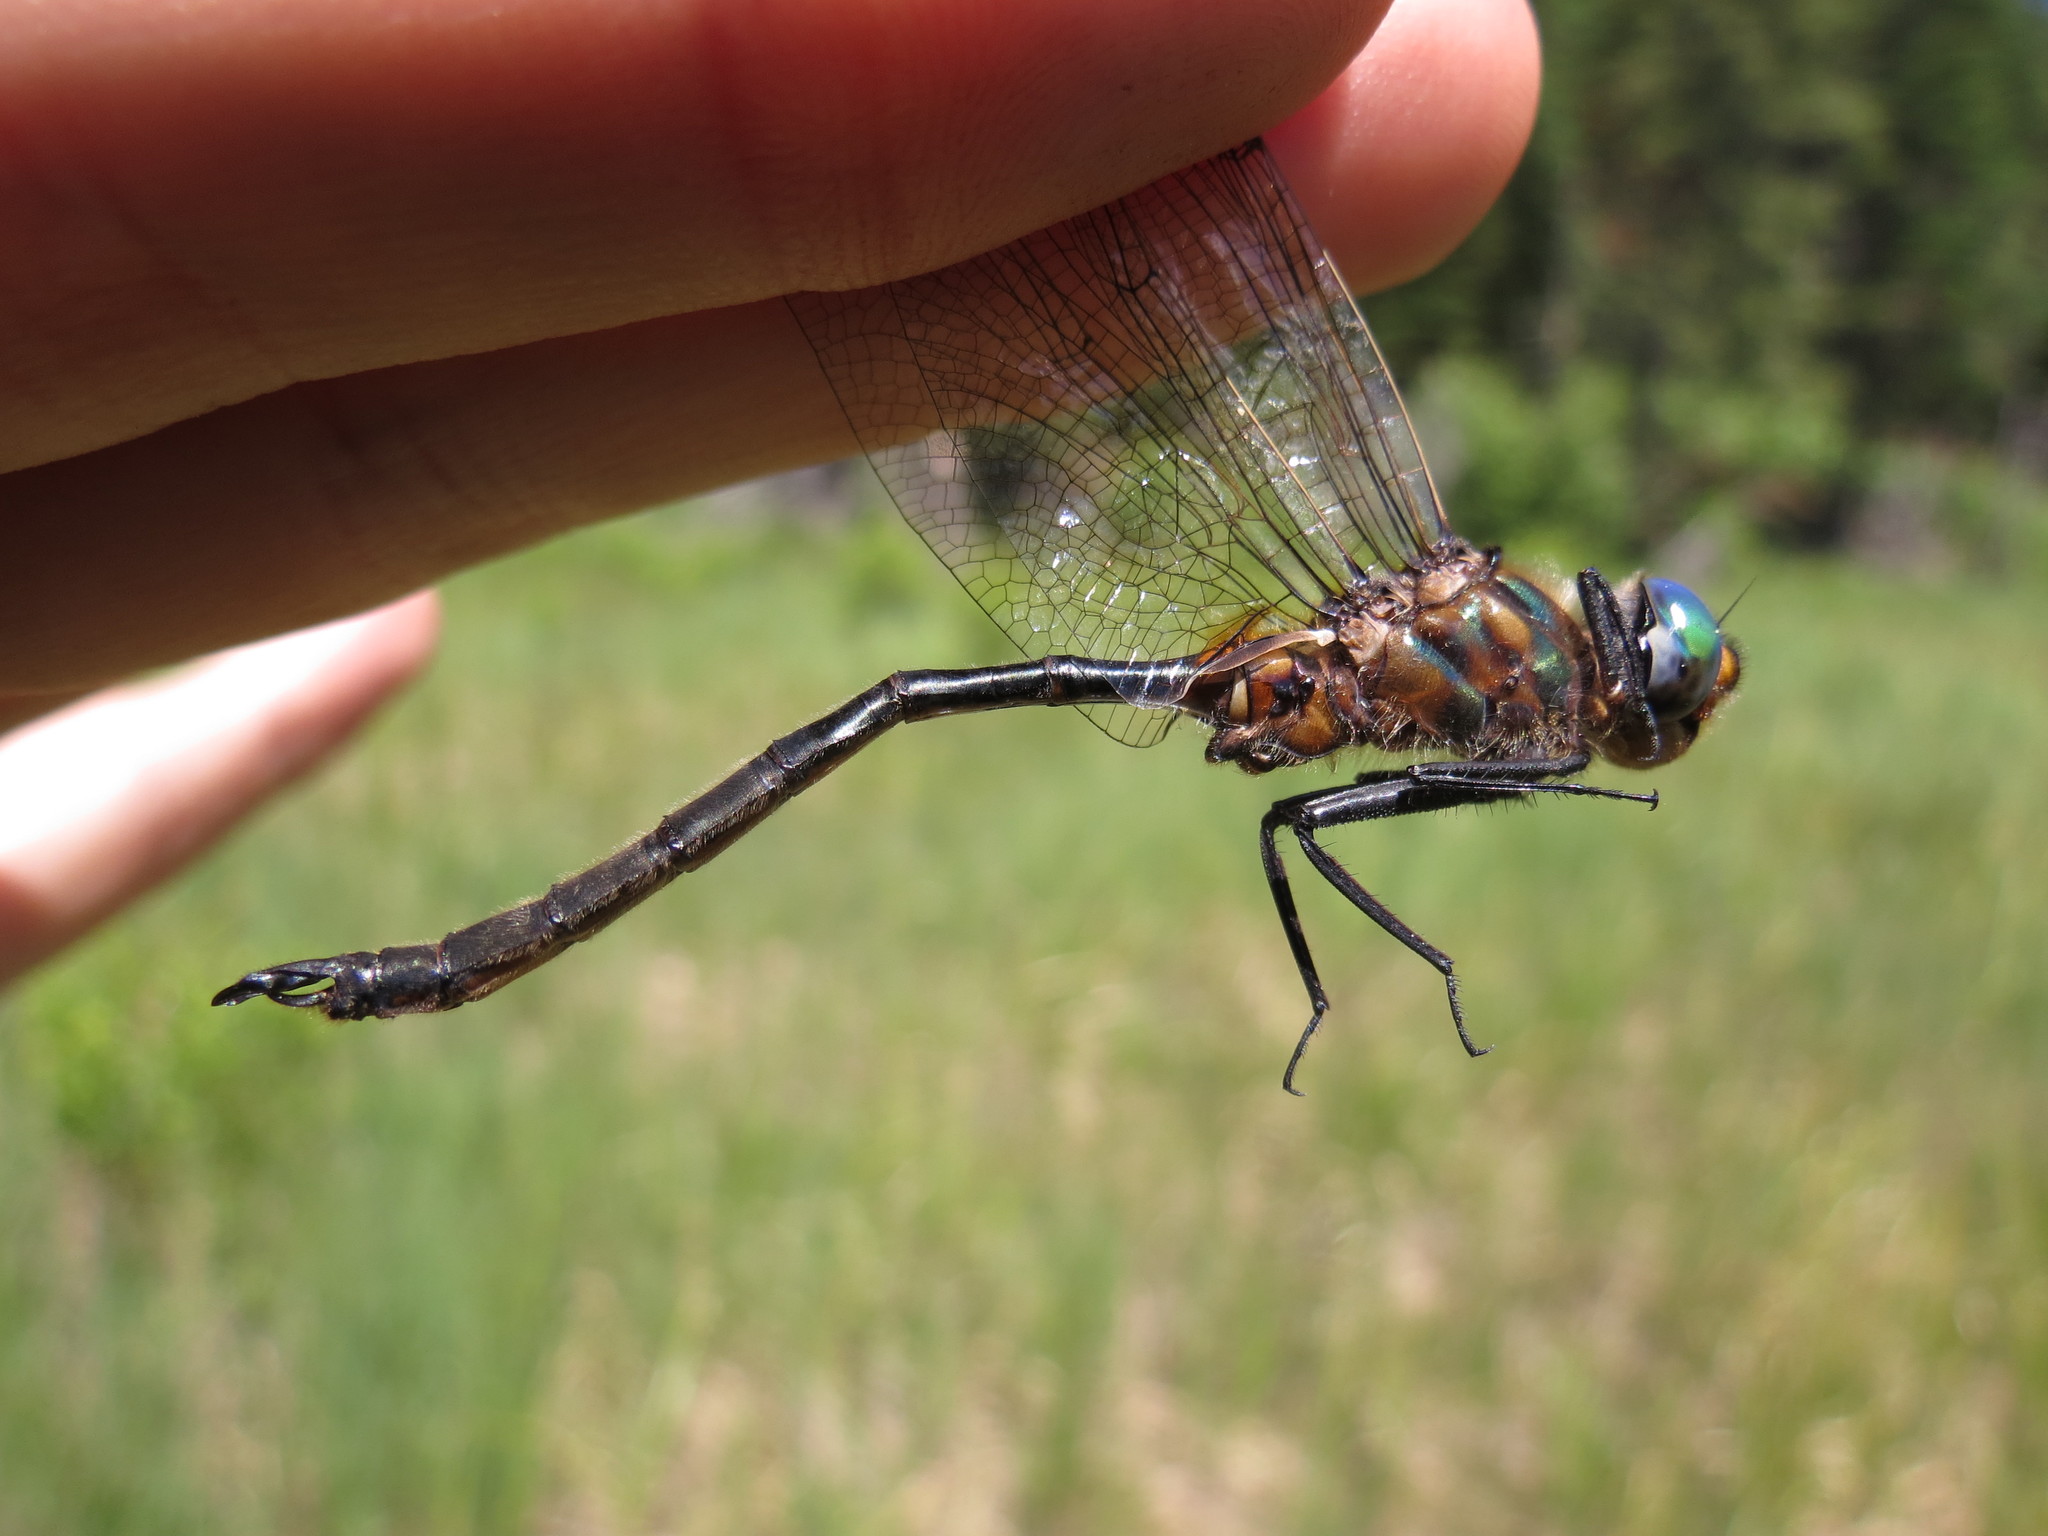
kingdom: Animalia
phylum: Arthropoda
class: Insecta
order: Odonata
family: Corduliidae
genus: Somatochlora
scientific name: Somatochlora kennedyi
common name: Kennedy's emerald
